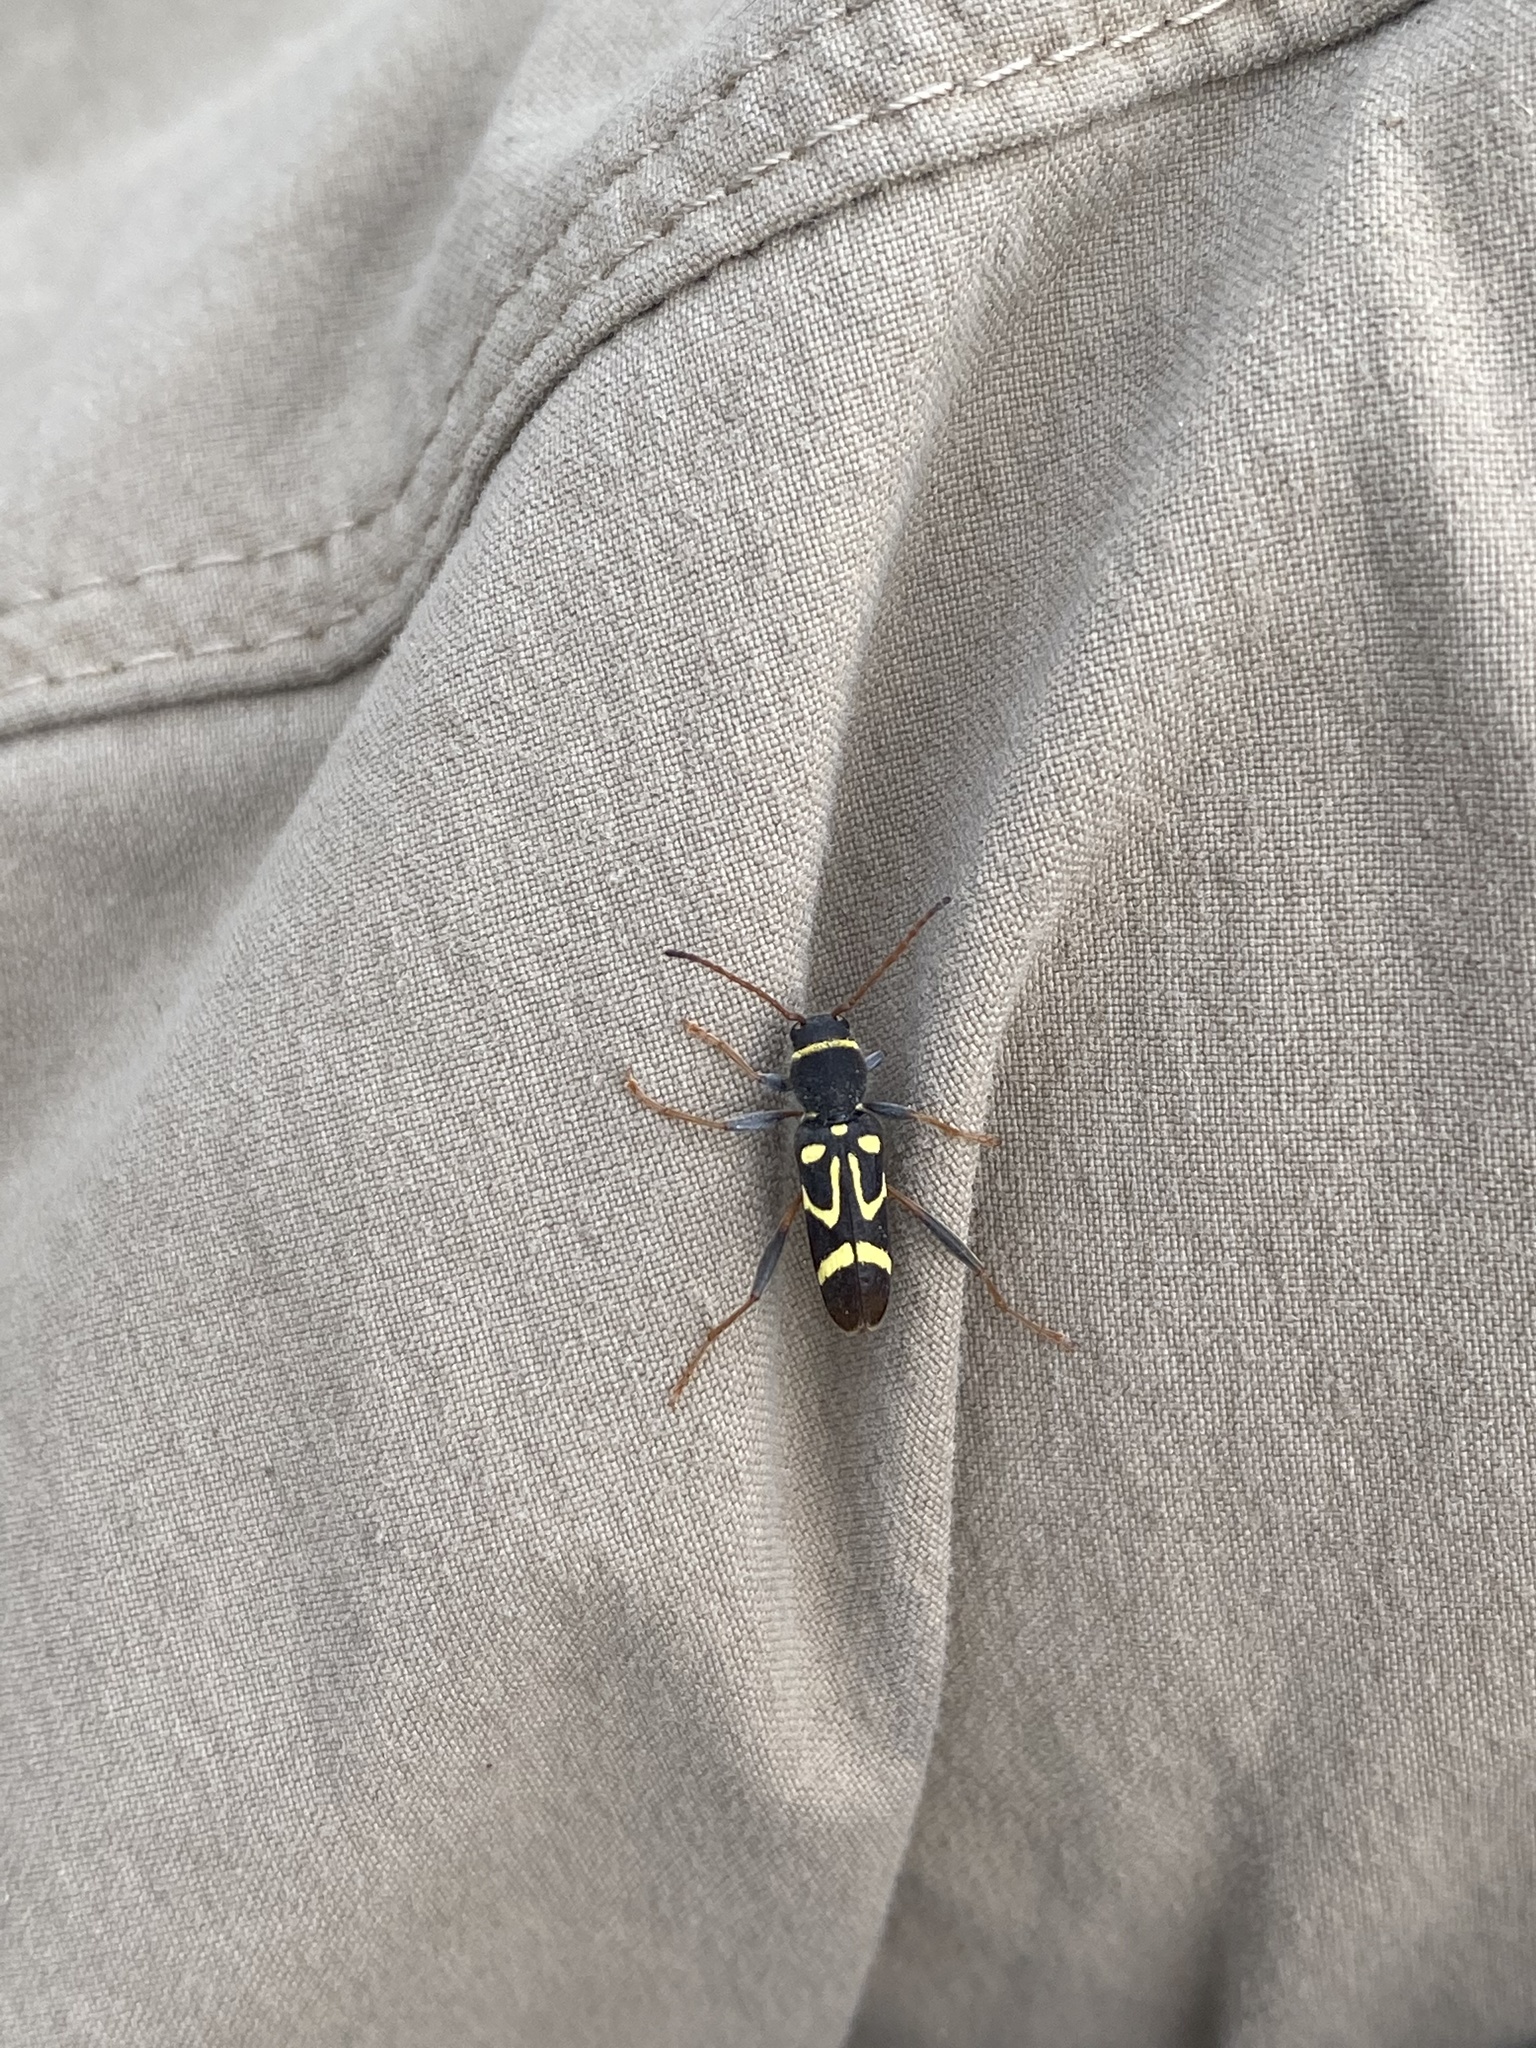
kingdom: Animalia
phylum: Arthropoda
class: Insecta
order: Coleoptera
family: Cerambycidae
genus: Clytus
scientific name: Clytus ruricola
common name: Round-necked longhorn beetle
